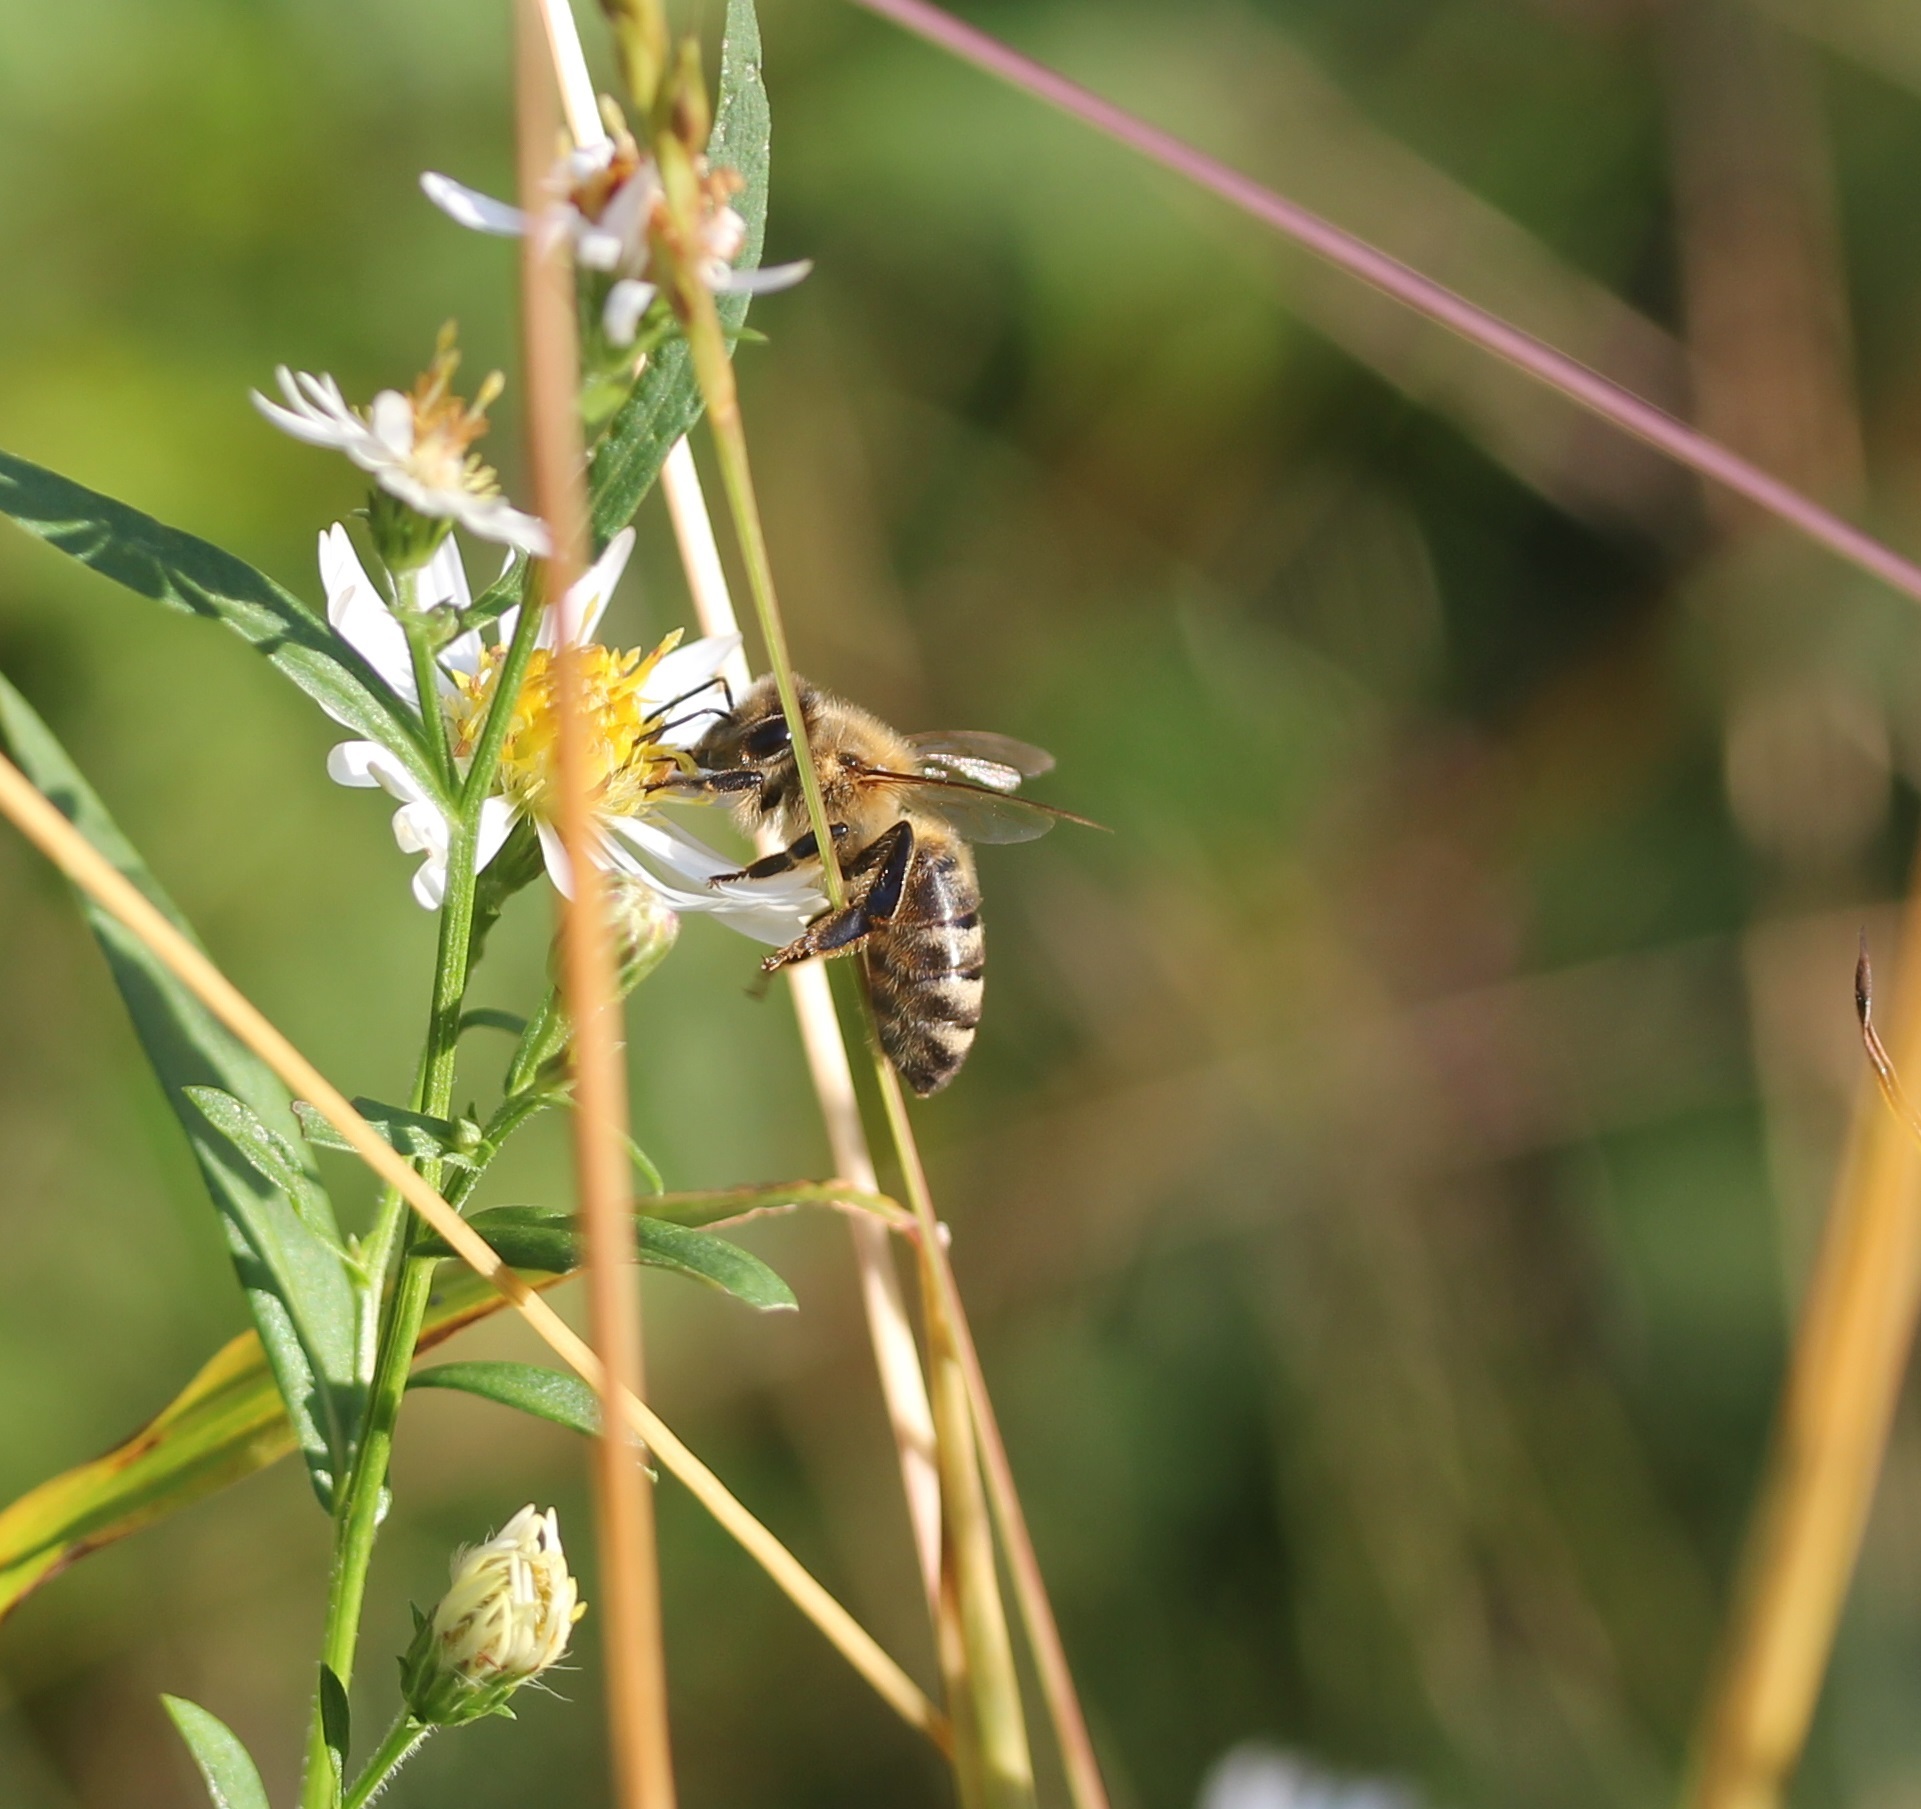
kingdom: Animalia
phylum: Arthropoda
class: Insecta
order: Hymenoptera
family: Apidae
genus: Apis
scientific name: Apis mellifera
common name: Honey bee
